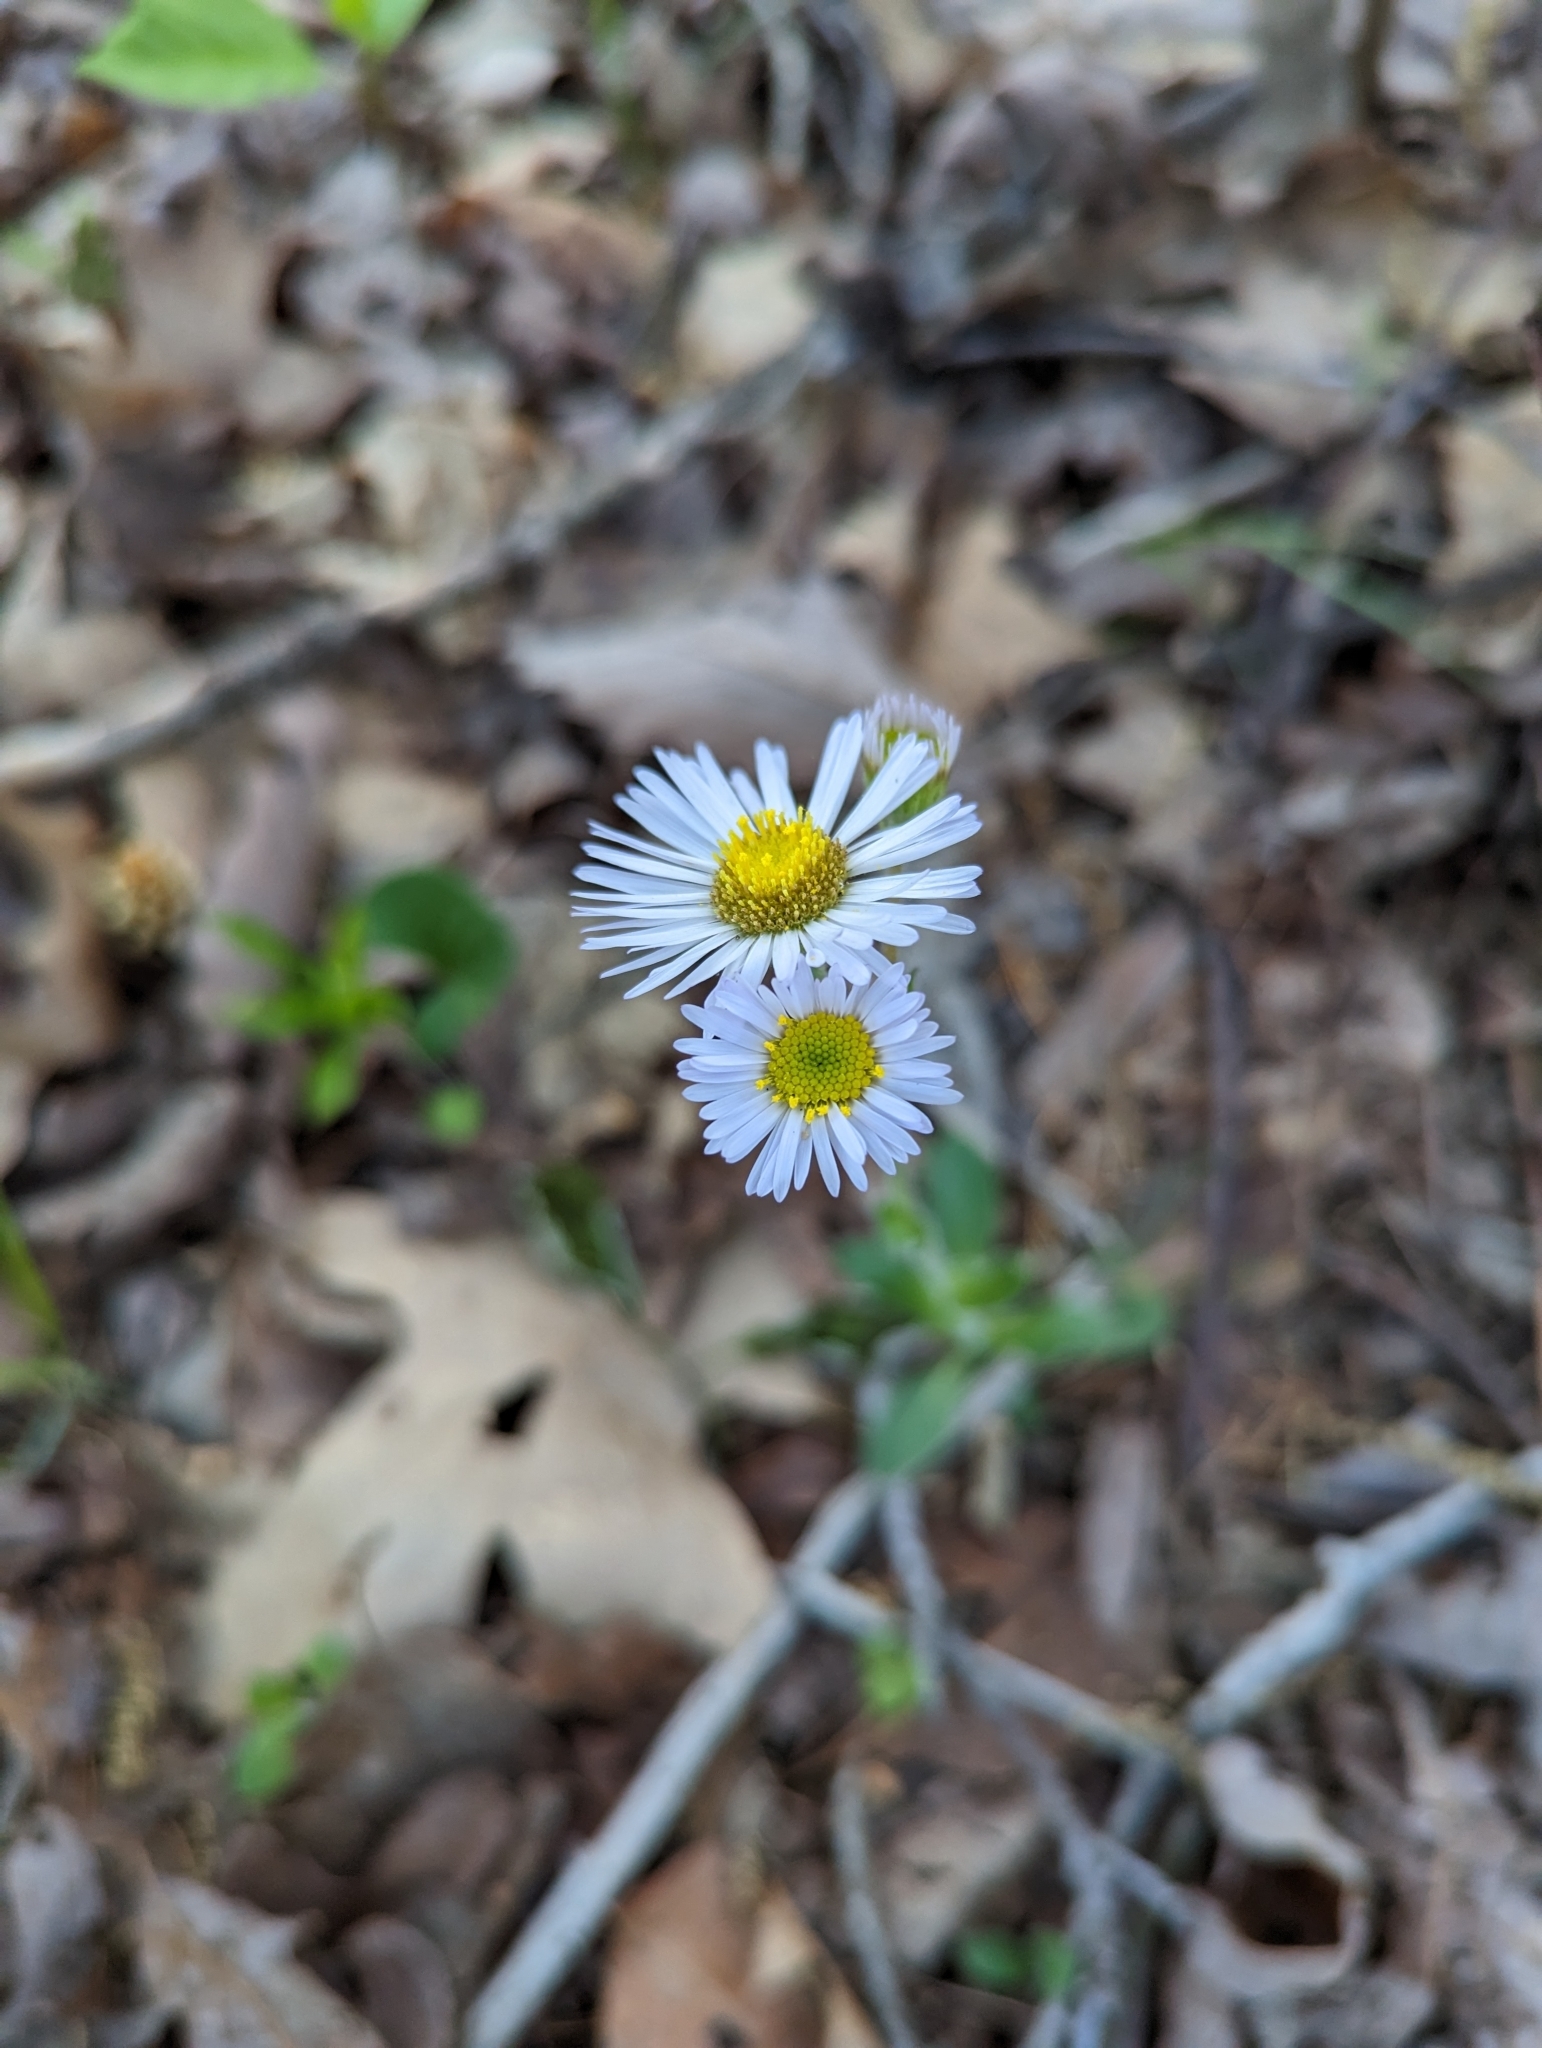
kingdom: Plantae
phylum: Tracheophyta
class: Magnoliopsida
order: Asterales
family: Asteraceae
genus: Erigeron
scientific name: Erigeron pulchellus
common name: Hairy fleabane
